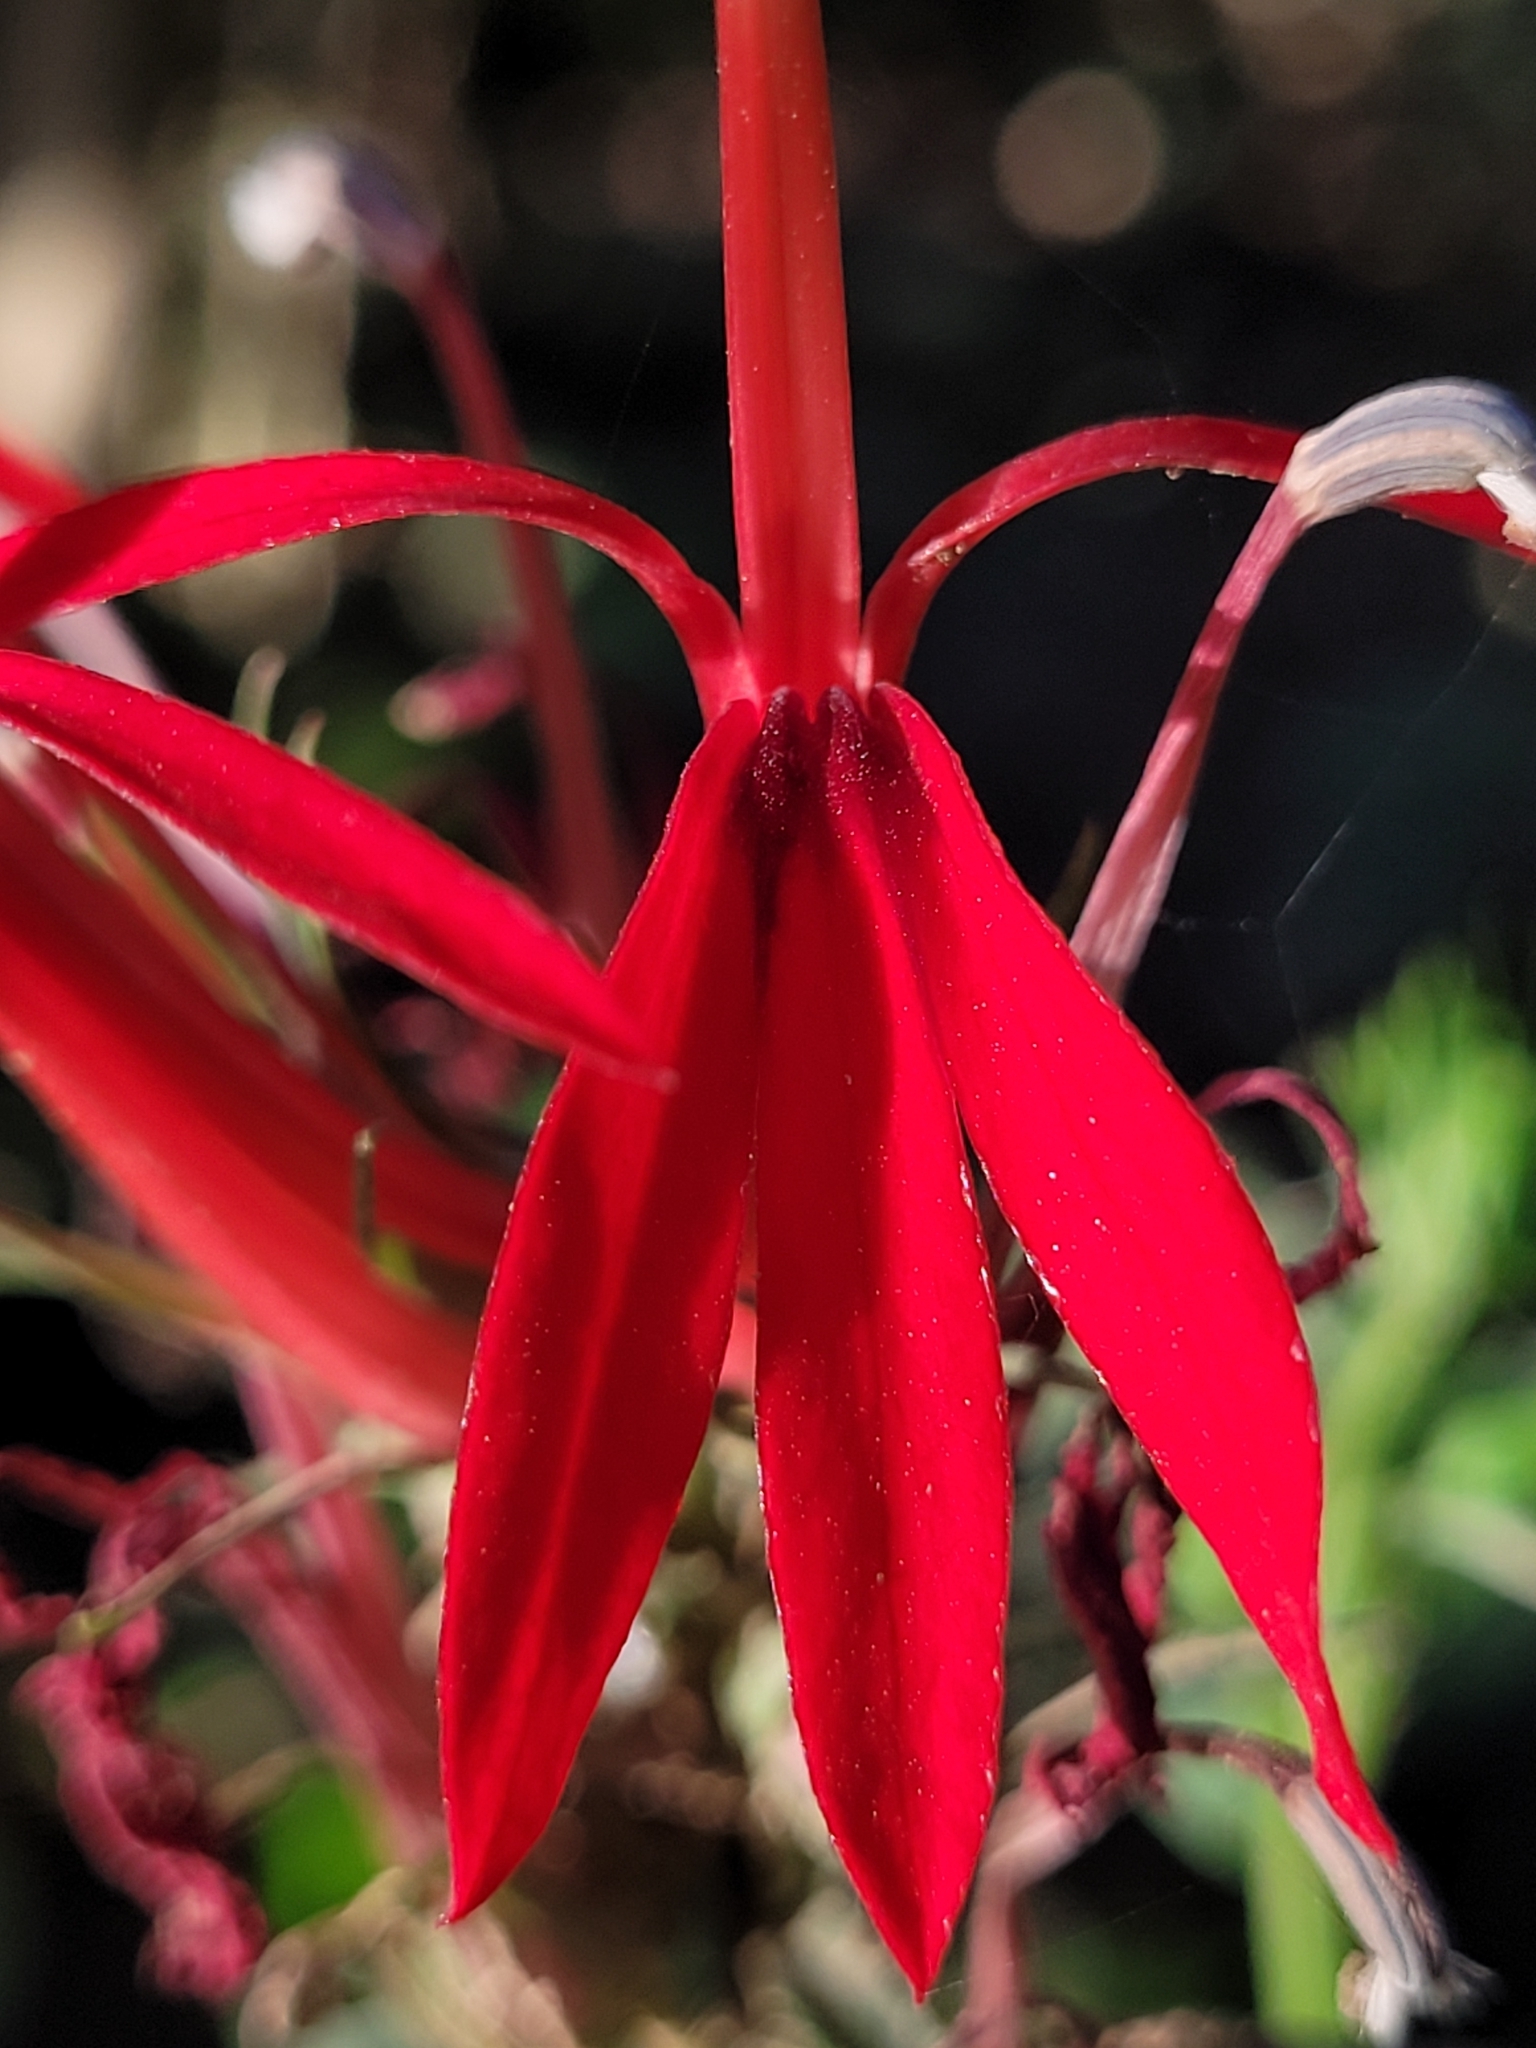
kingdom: Plantae
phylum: Tracheophyta
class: Magnoliopsida
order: Asterales
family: Campanulaceae
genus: Lobelia
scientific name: Lobelia cardinalis
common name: Cardinal flower
